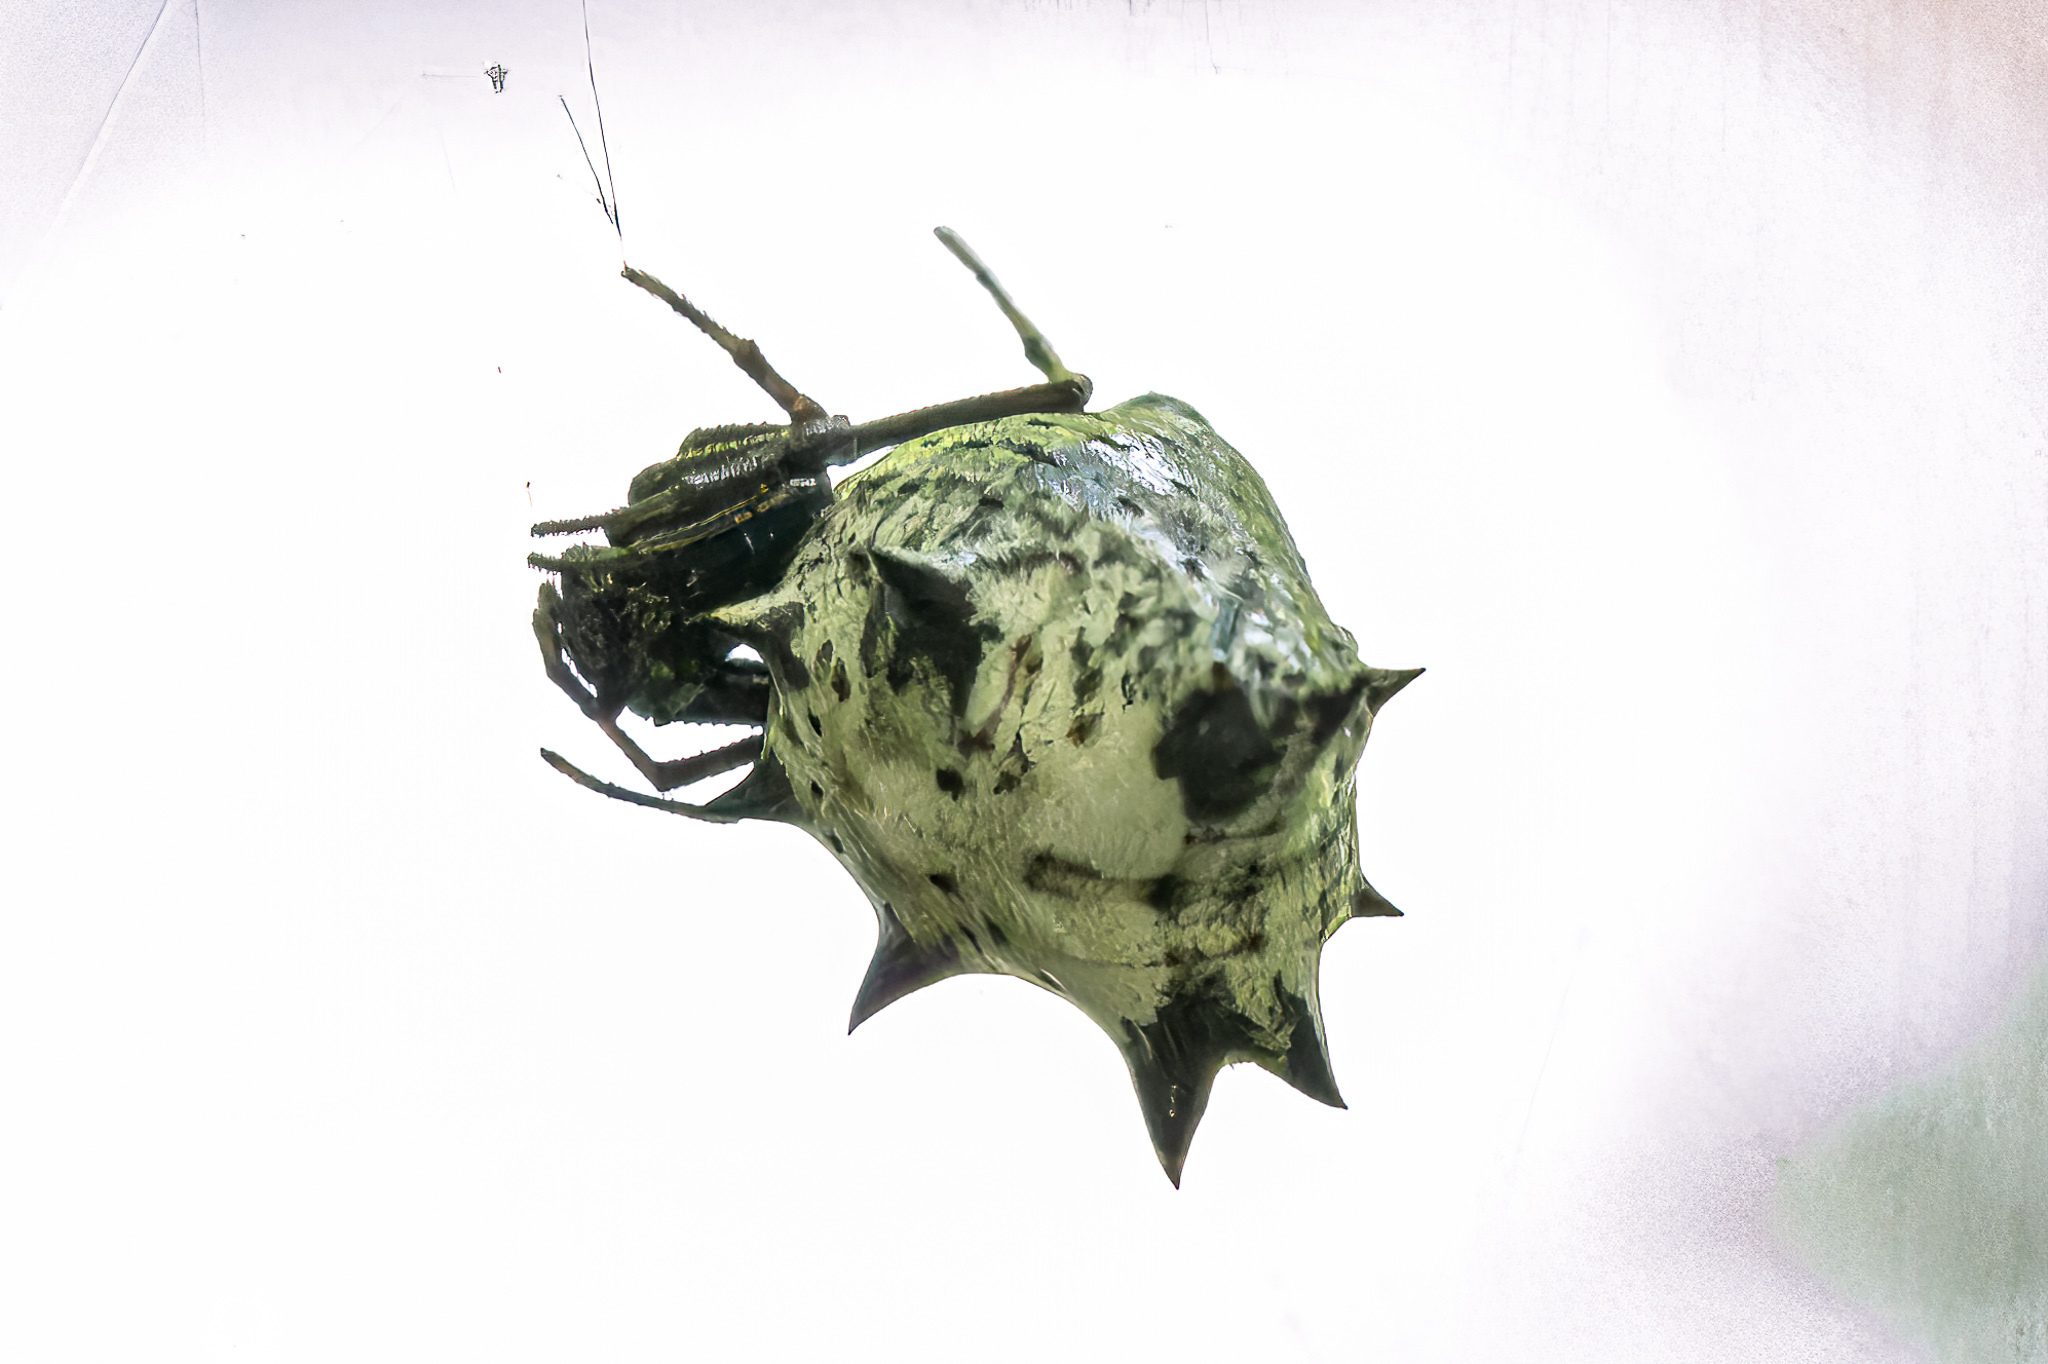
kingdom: Animalia
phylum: Arthropoda
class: Arachnida
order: Araneae
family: Araneidae
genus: Micrathena
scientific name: Micrathena gracilis
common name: Orb weavers
